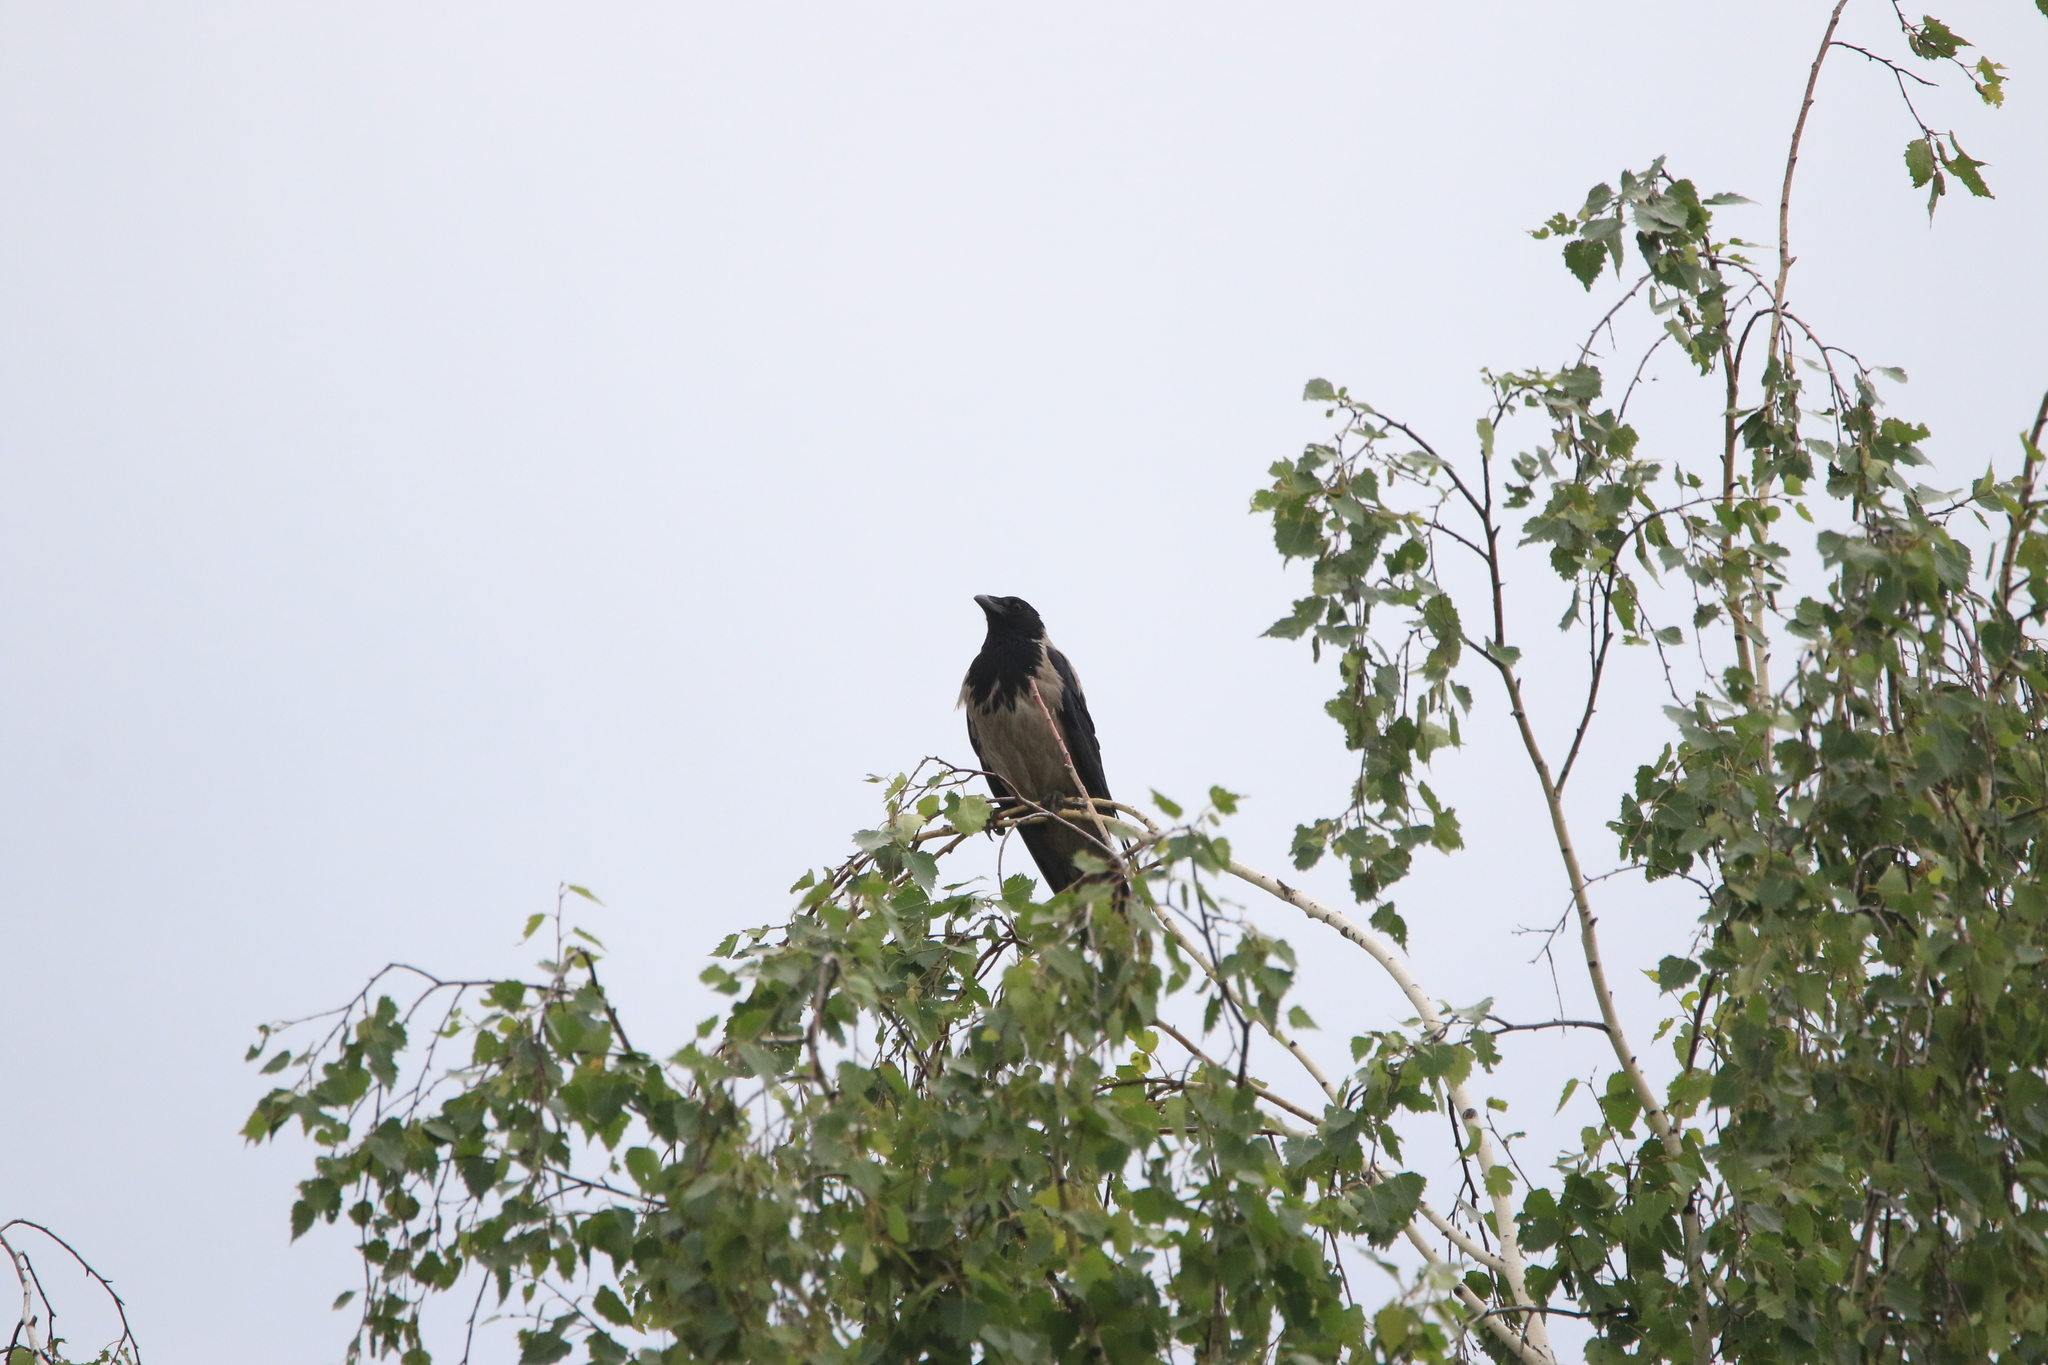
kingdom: Animalia
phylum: Chordata
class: Aves
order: Passeriformes
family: Corvidae
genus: Corvus
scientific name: Corvus cornix
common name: Hooded crow
